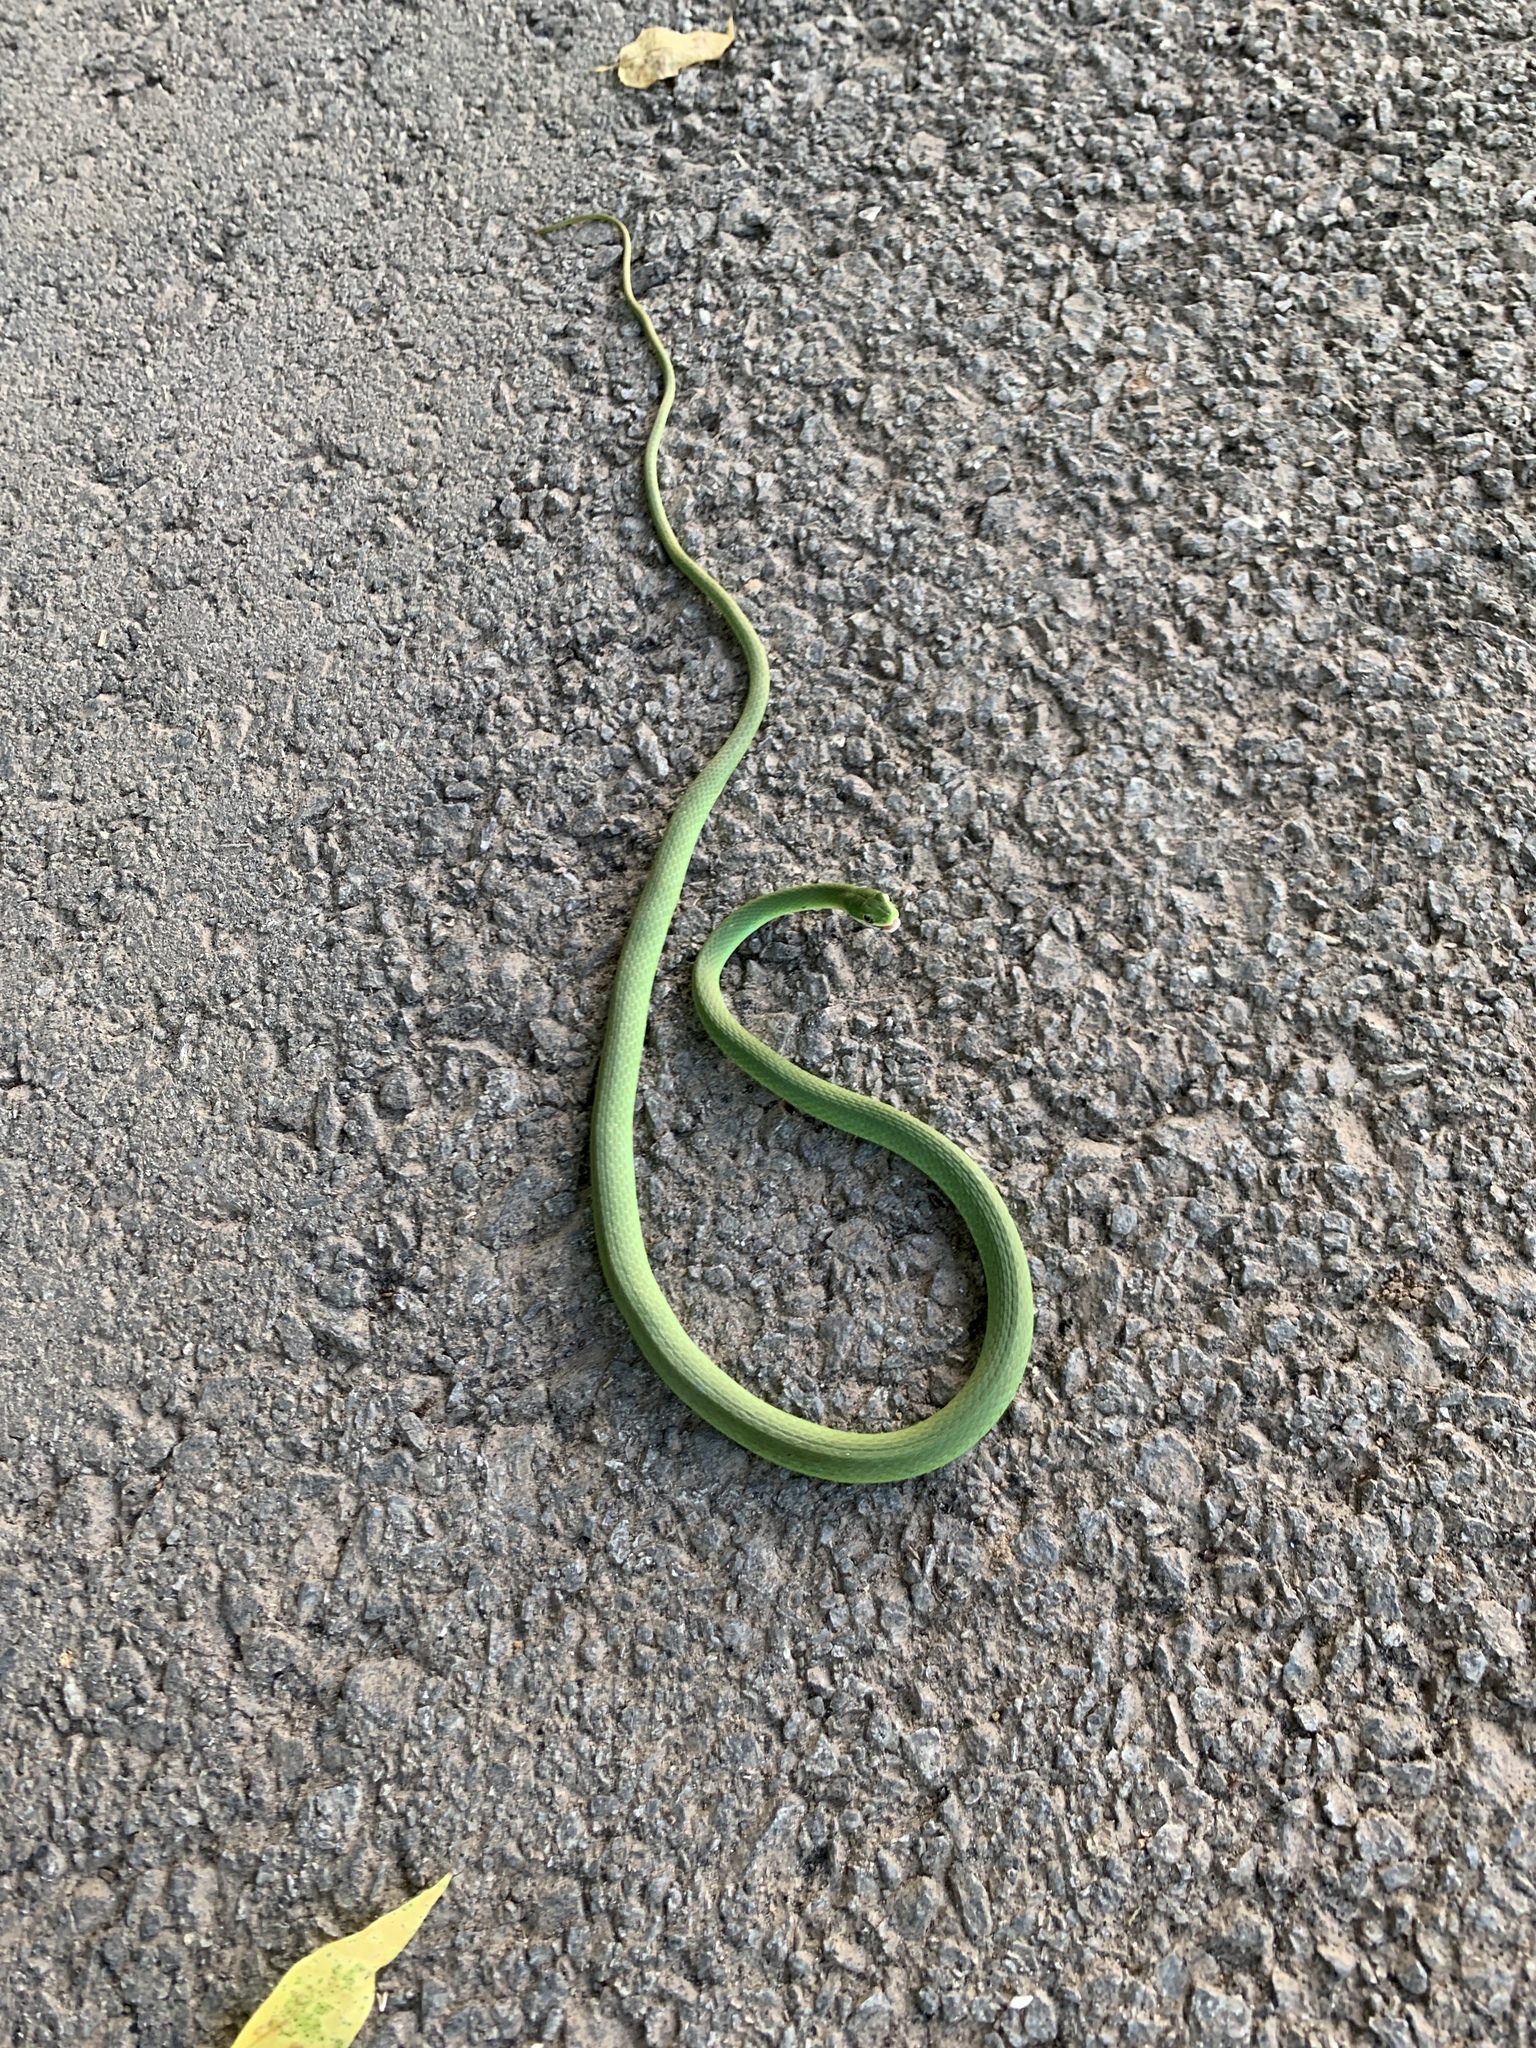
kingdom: Animalia
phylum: Chordata
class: Squamata
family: Colubridae
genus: Opheodrys
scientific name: Opheodrys aestivus
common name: Rough greensnake
